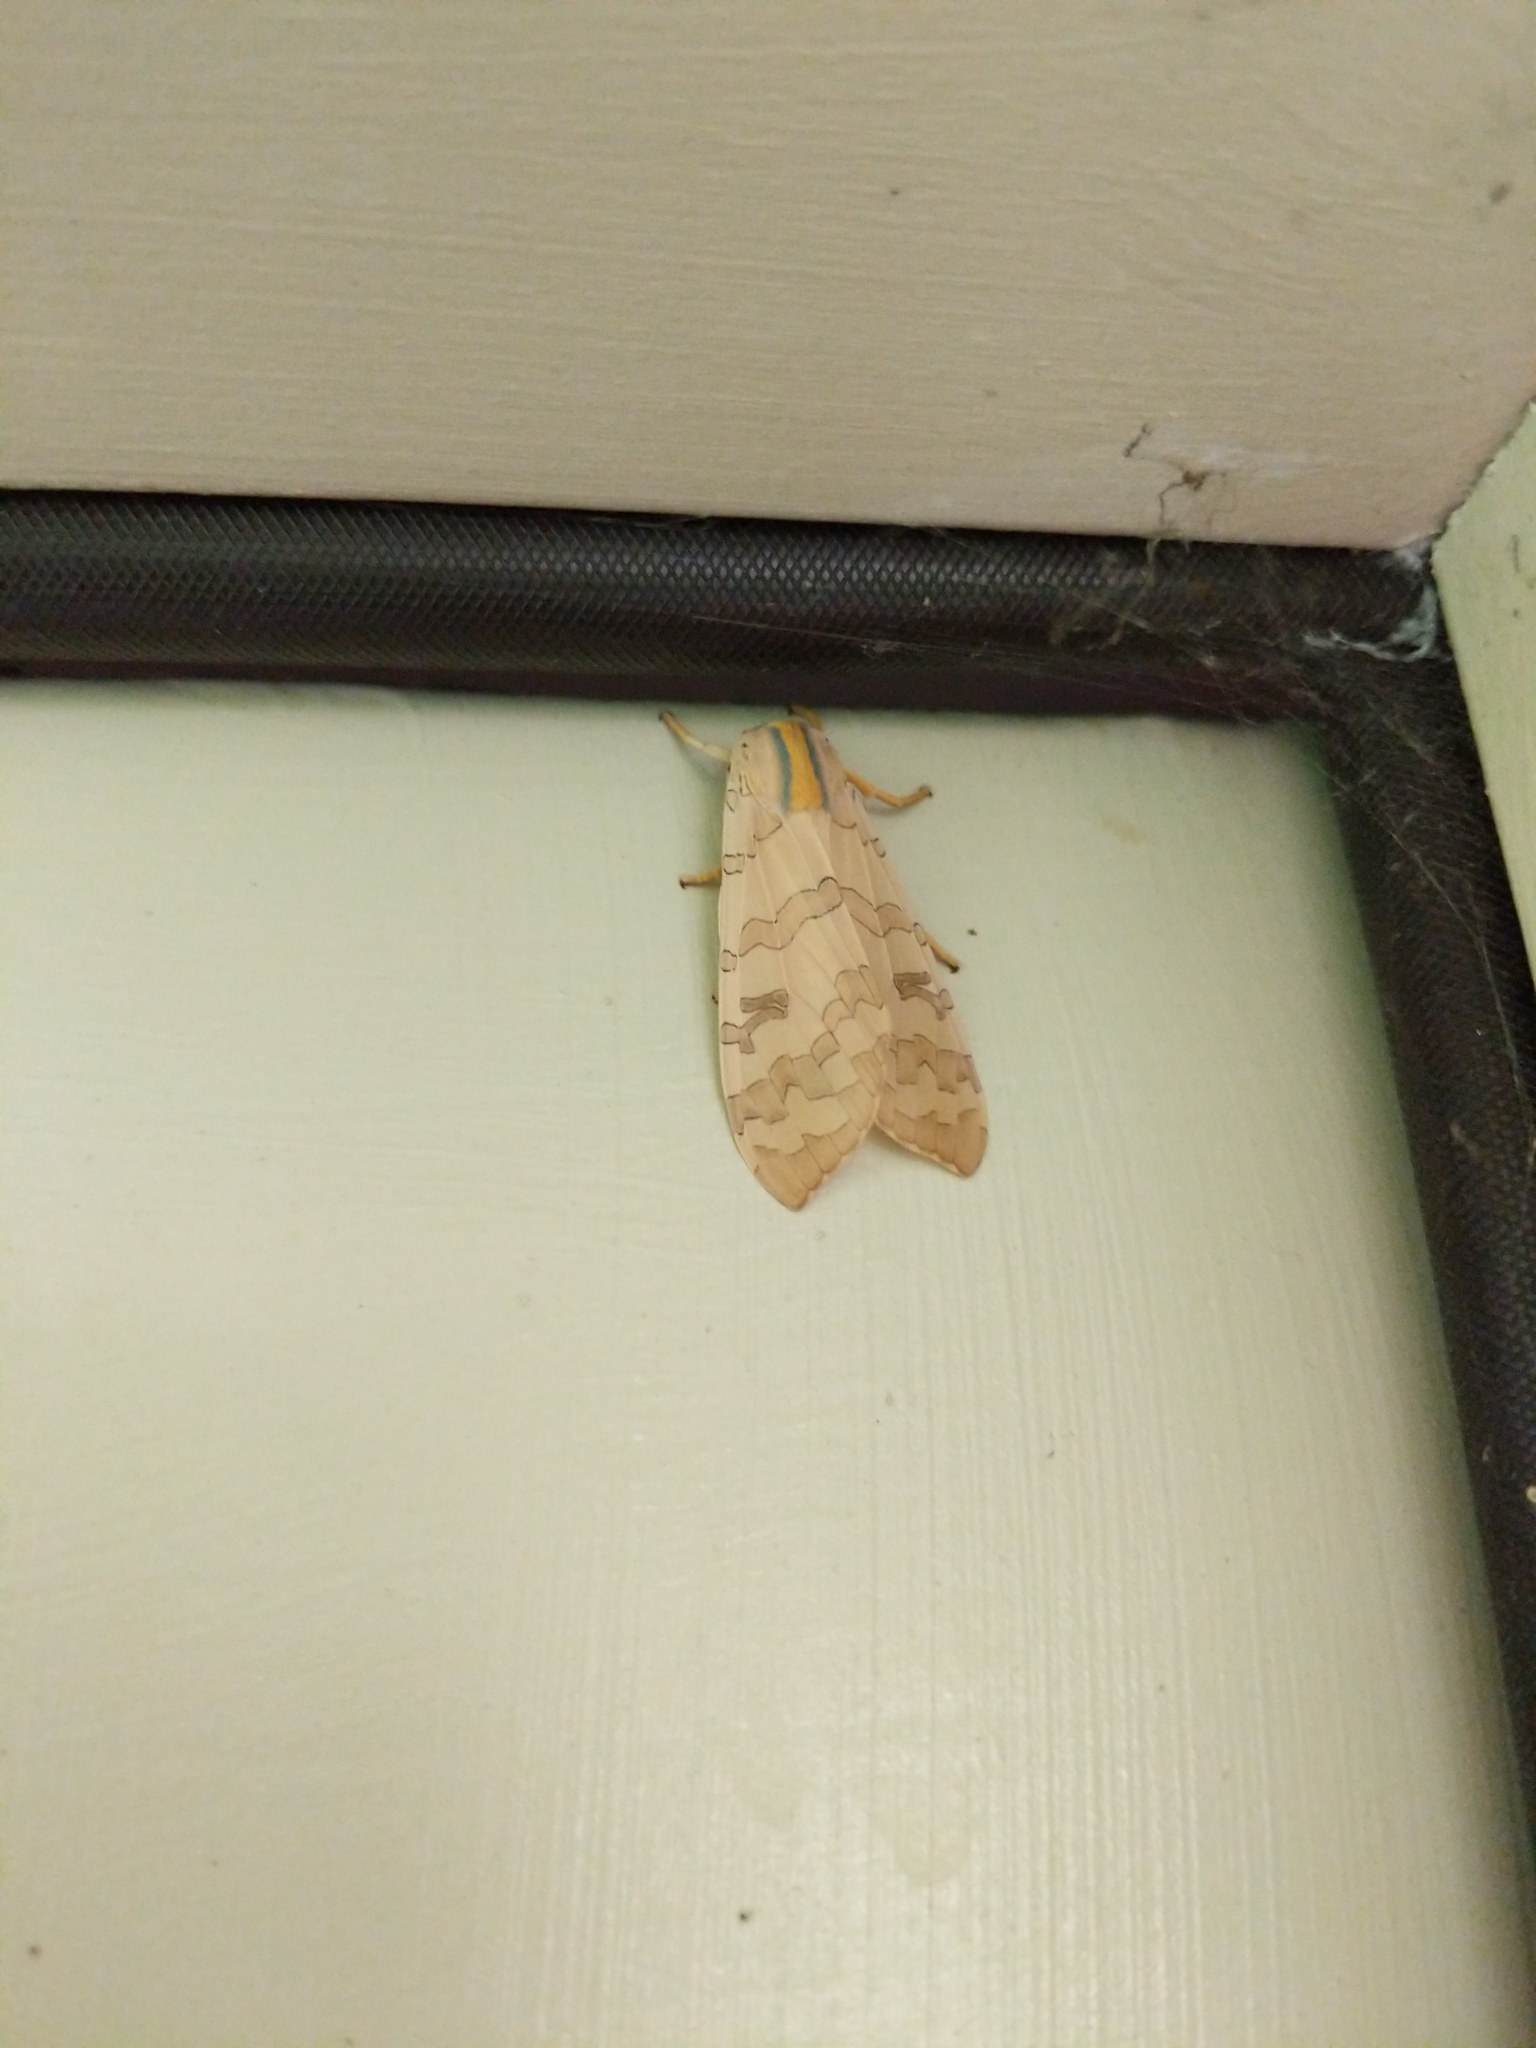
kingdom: Animalia
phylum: Arthropoda
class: Insecta
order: Lepidoptera
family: Erebidae
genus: Halysidota
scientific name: Halysidota
